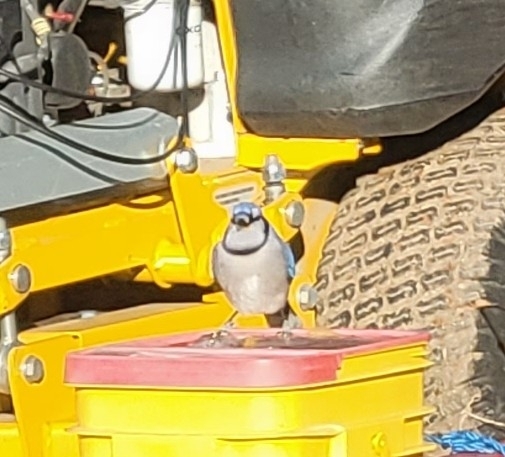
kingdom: Animalia
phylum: Chordata
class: Aves
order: Passeriformes
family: Corvidae
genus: Cyanocitta
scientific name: Cyanocitta cristata
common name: Blue jay
